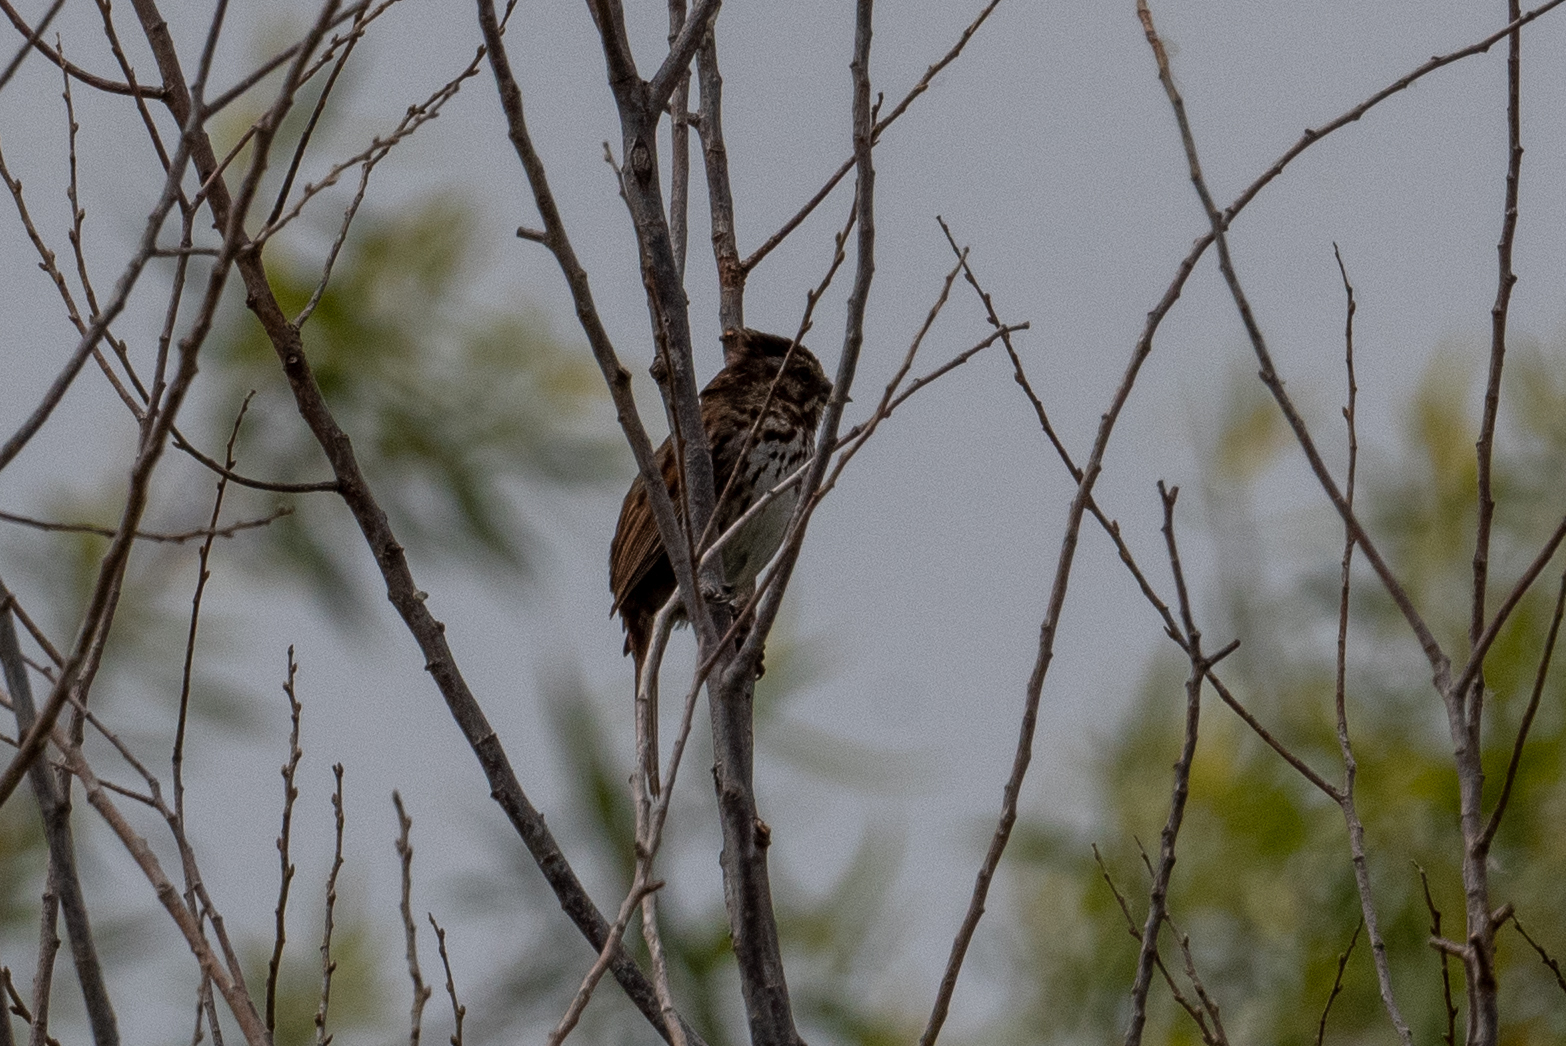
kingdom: Animalia
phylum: Chordata
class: Aves
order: Passeriformes
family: Passerellidae
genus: Melospiza
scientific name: Melospiza melodia
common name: Song sparrow
